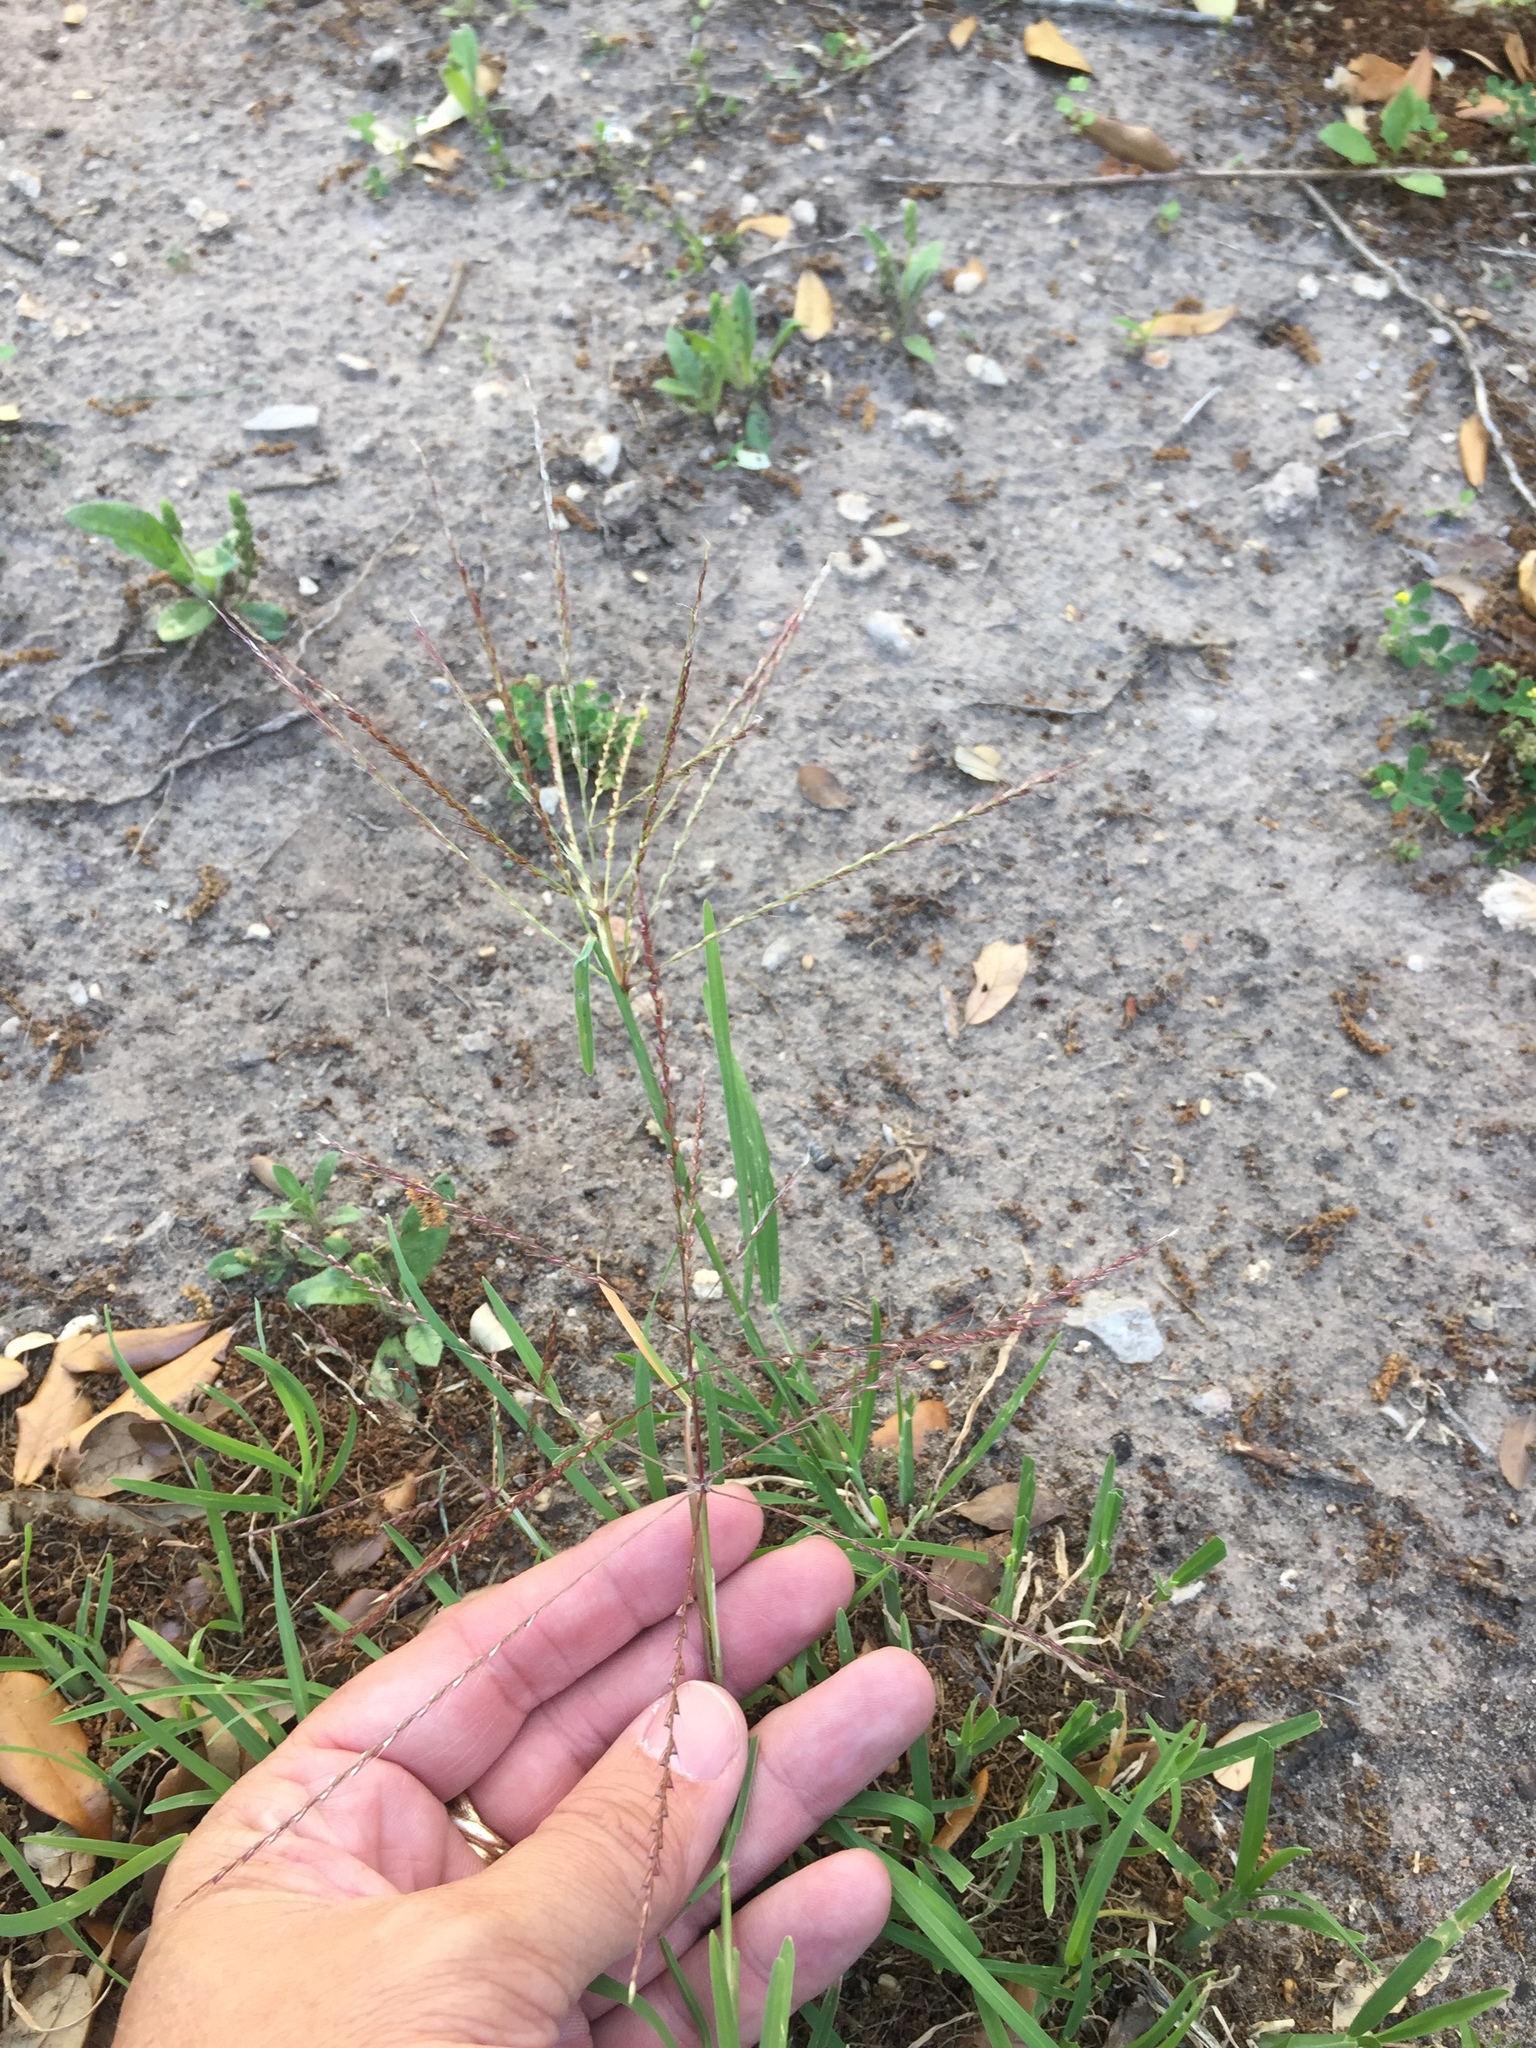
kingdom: Plantae
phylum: Tracheophyta
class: Liliopsida
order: Poales
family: Poaceae
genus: Chloris
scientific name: Chloris verticillata
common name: Tumble windmill grass
